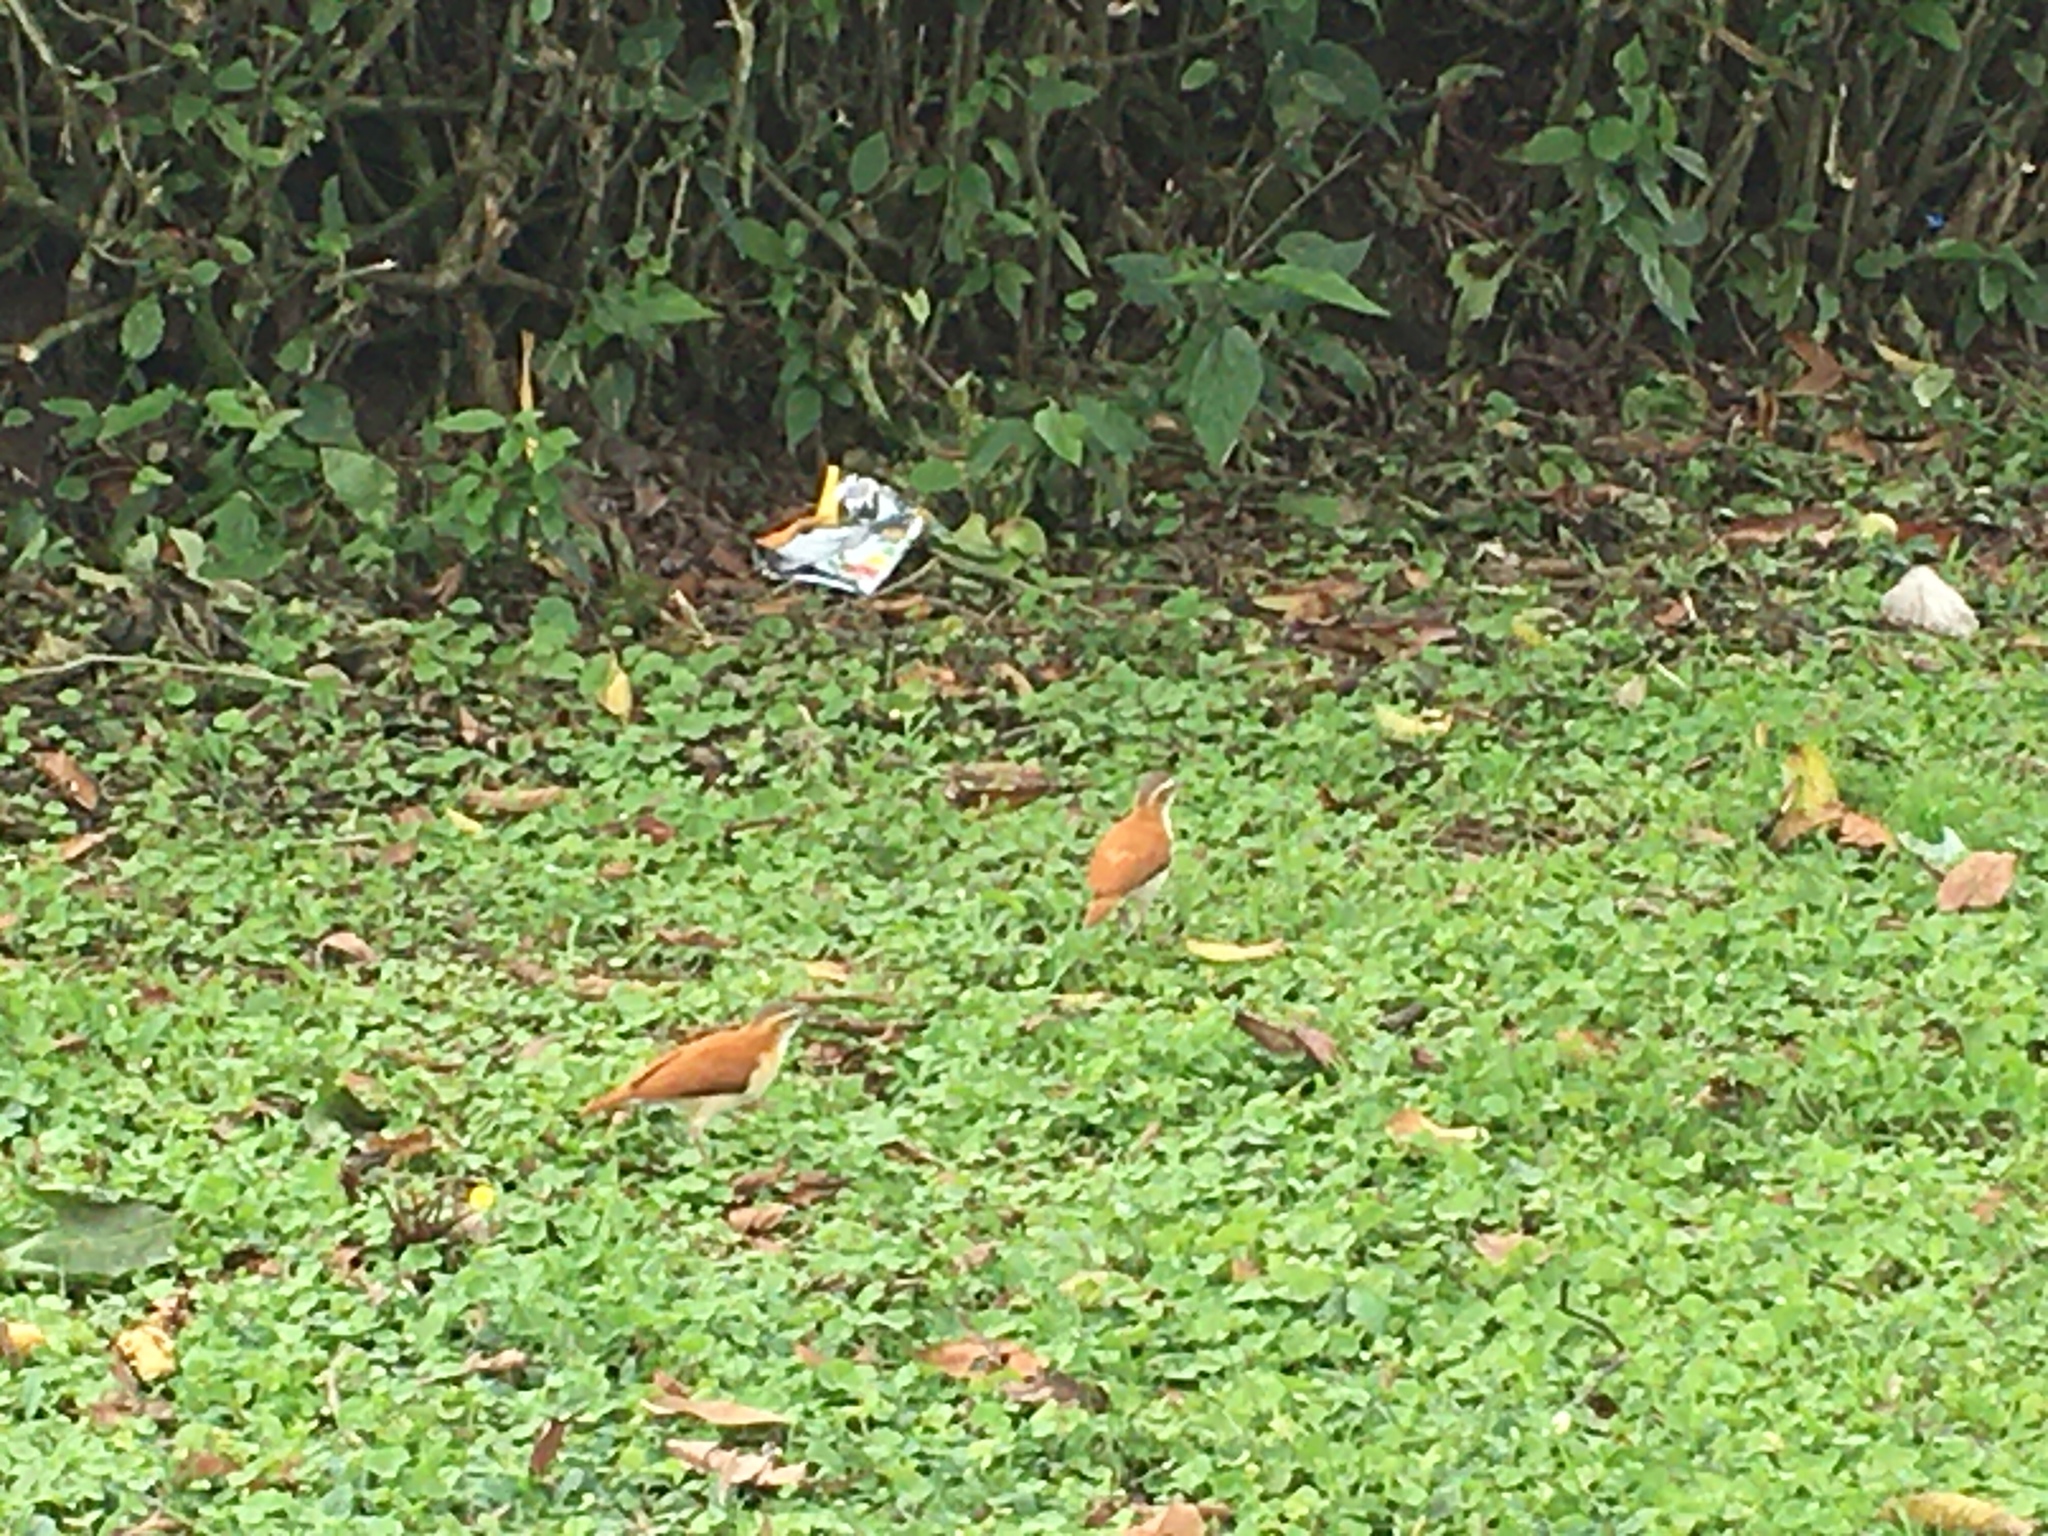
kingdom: Animalia
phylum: Chordata
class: Aves
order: Passeriformes
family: Furnariidae
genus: Furnarius
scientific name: Furnarius leucopus
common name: Pale-legged hornero
